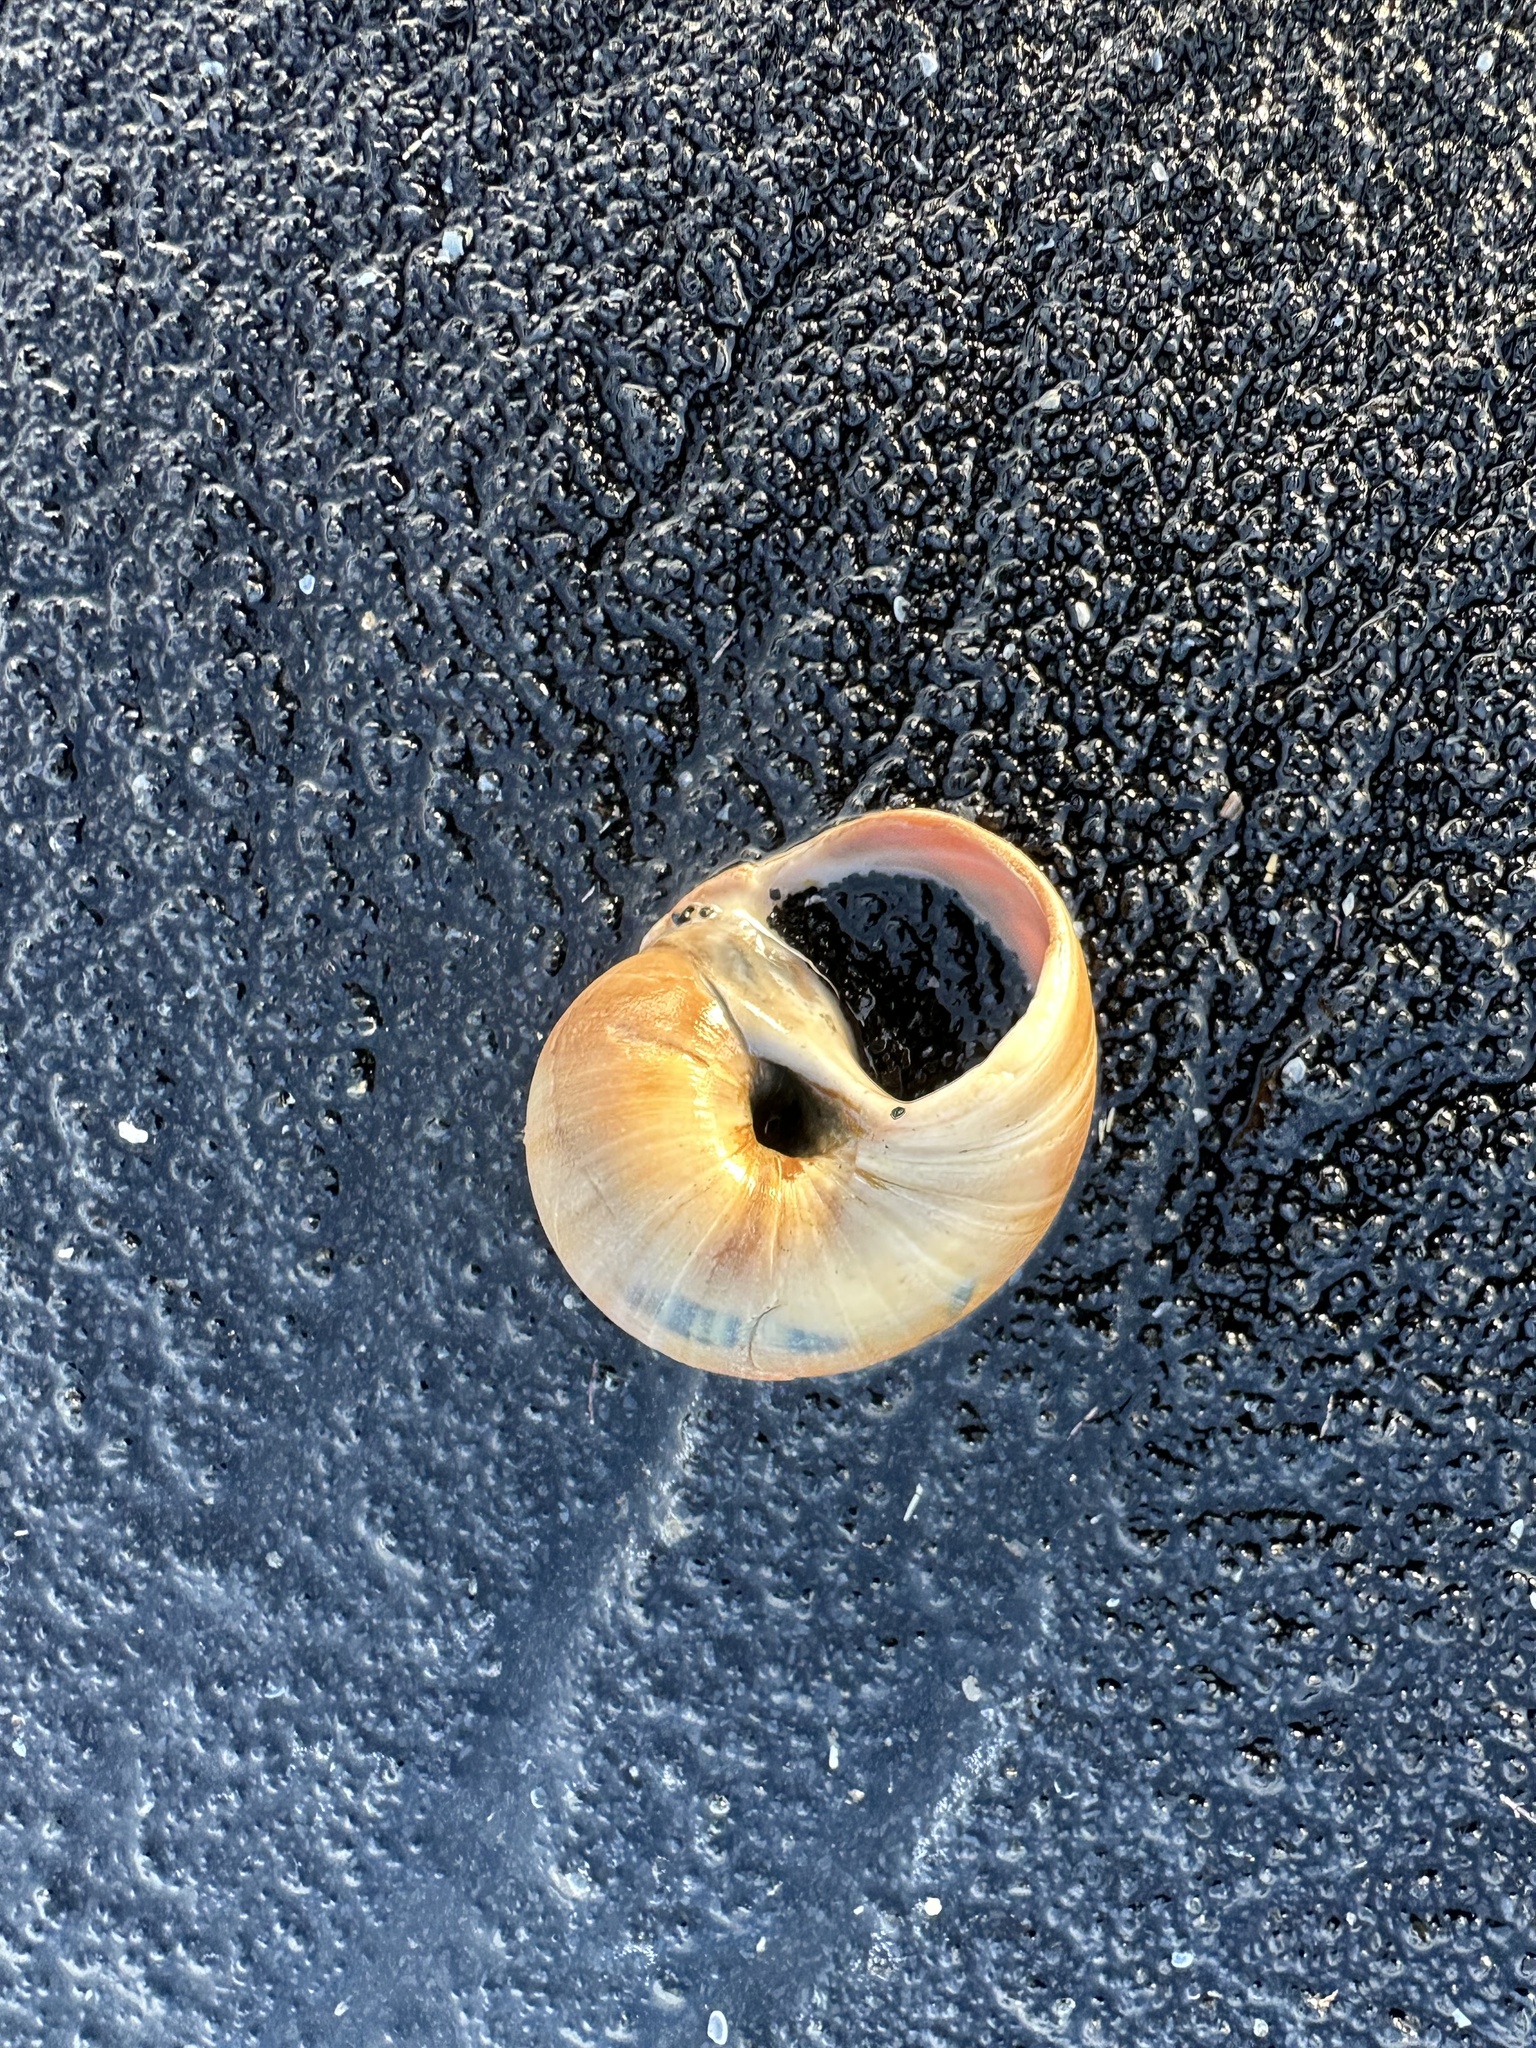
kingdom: Animalia
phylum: Mollusca
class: Gastropoda
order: Littorinimorpha
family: Naticidae
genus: Euspira
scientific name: Euspira heros
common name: Common northern moonsnail
